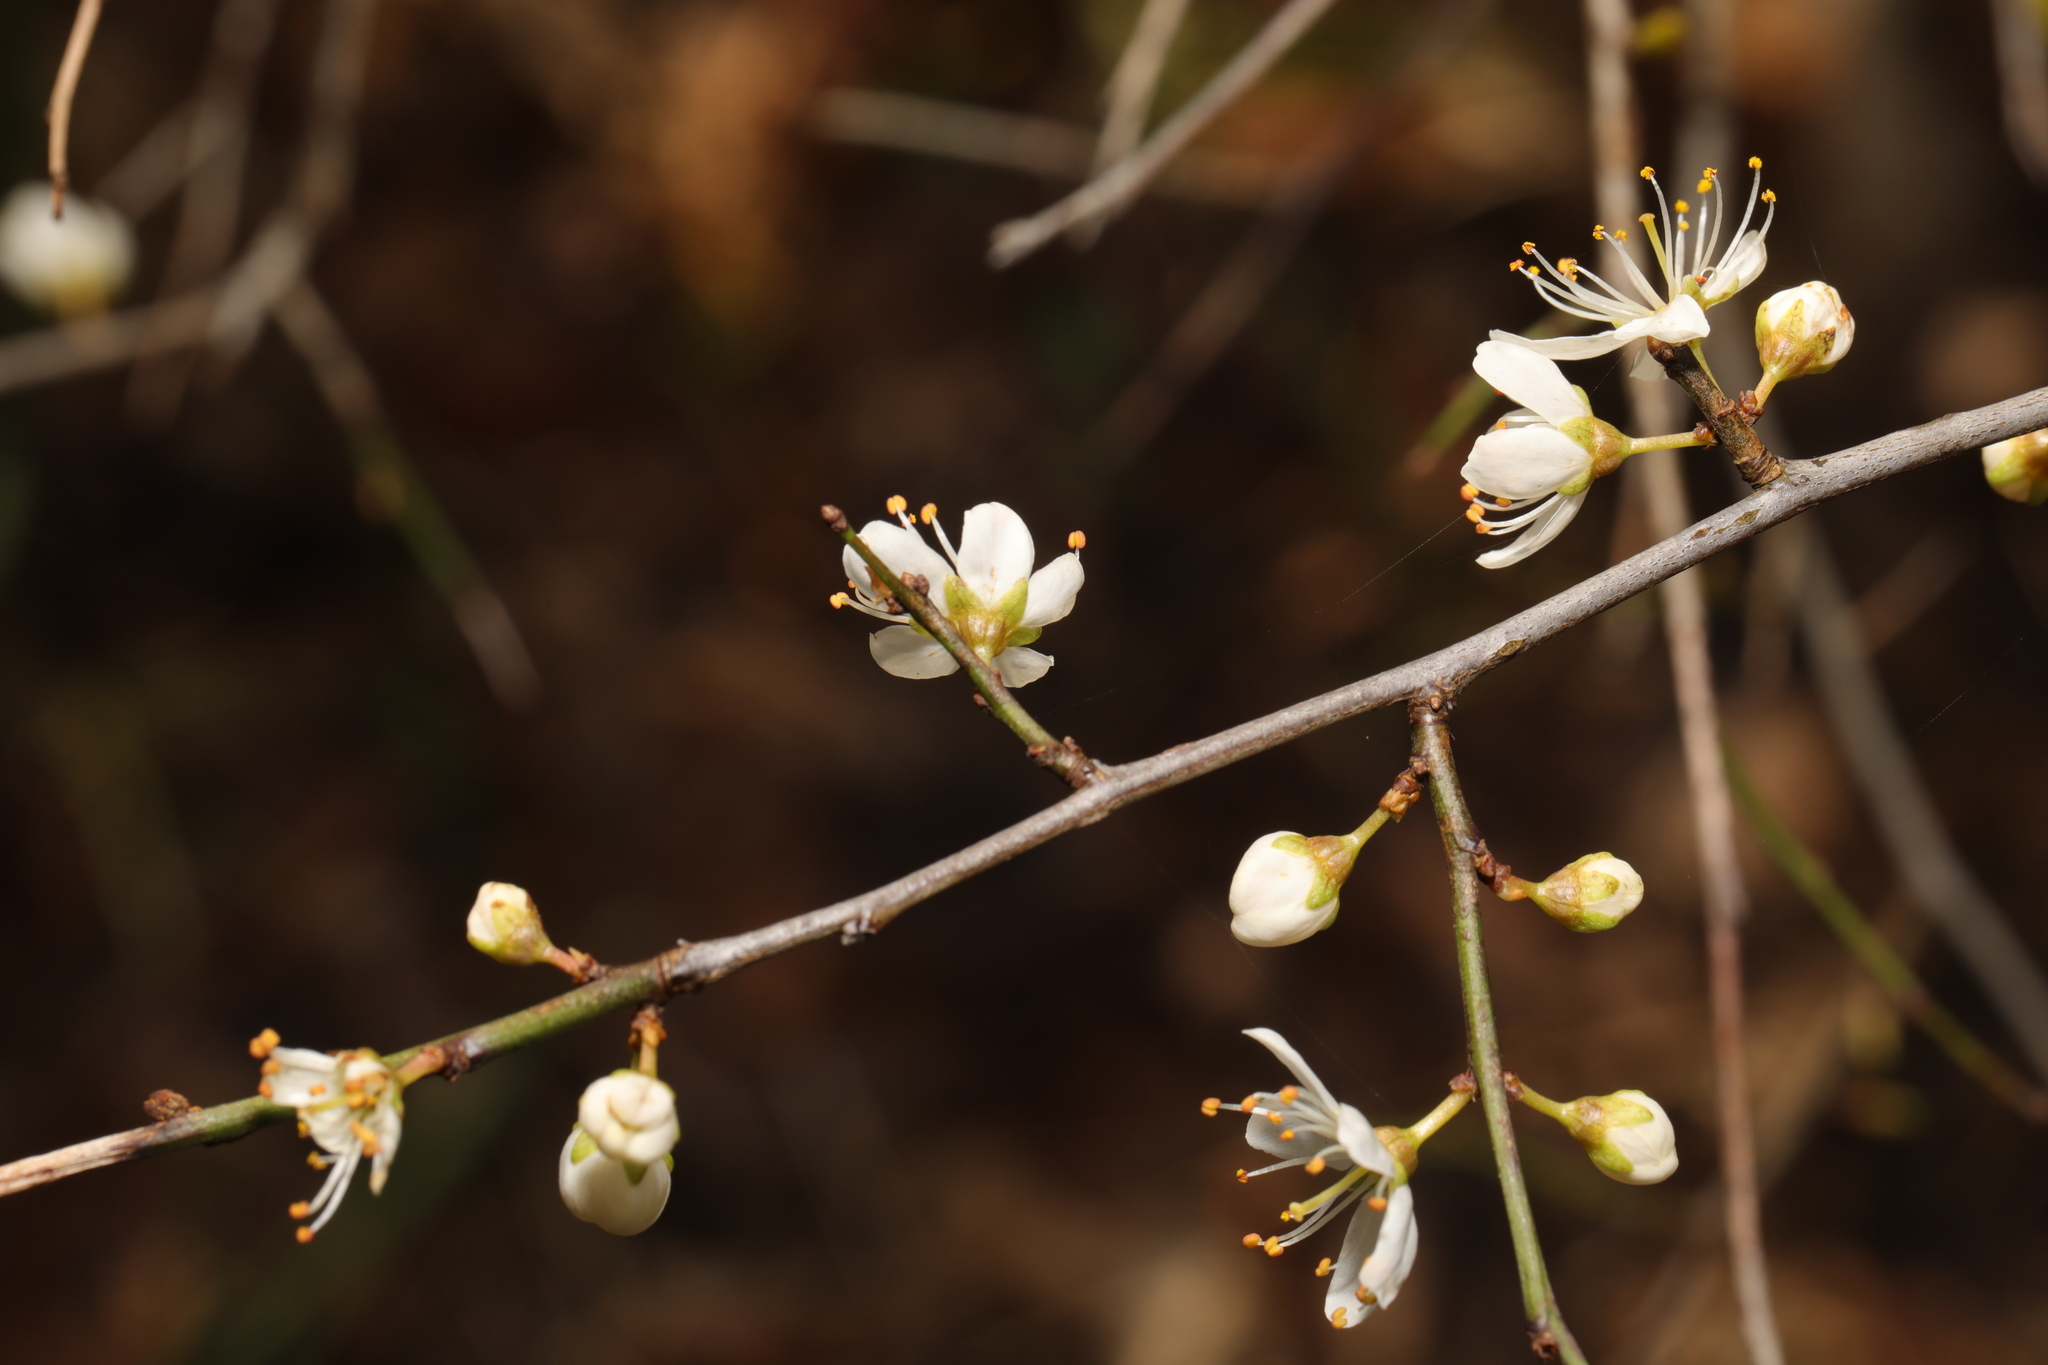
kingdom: Plantae
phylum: Tracheophyta
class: Magnoliopsida
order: Rosales
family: Rosaceae
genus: Prunus
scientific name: Prunus spinosa
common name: Blackthorn
